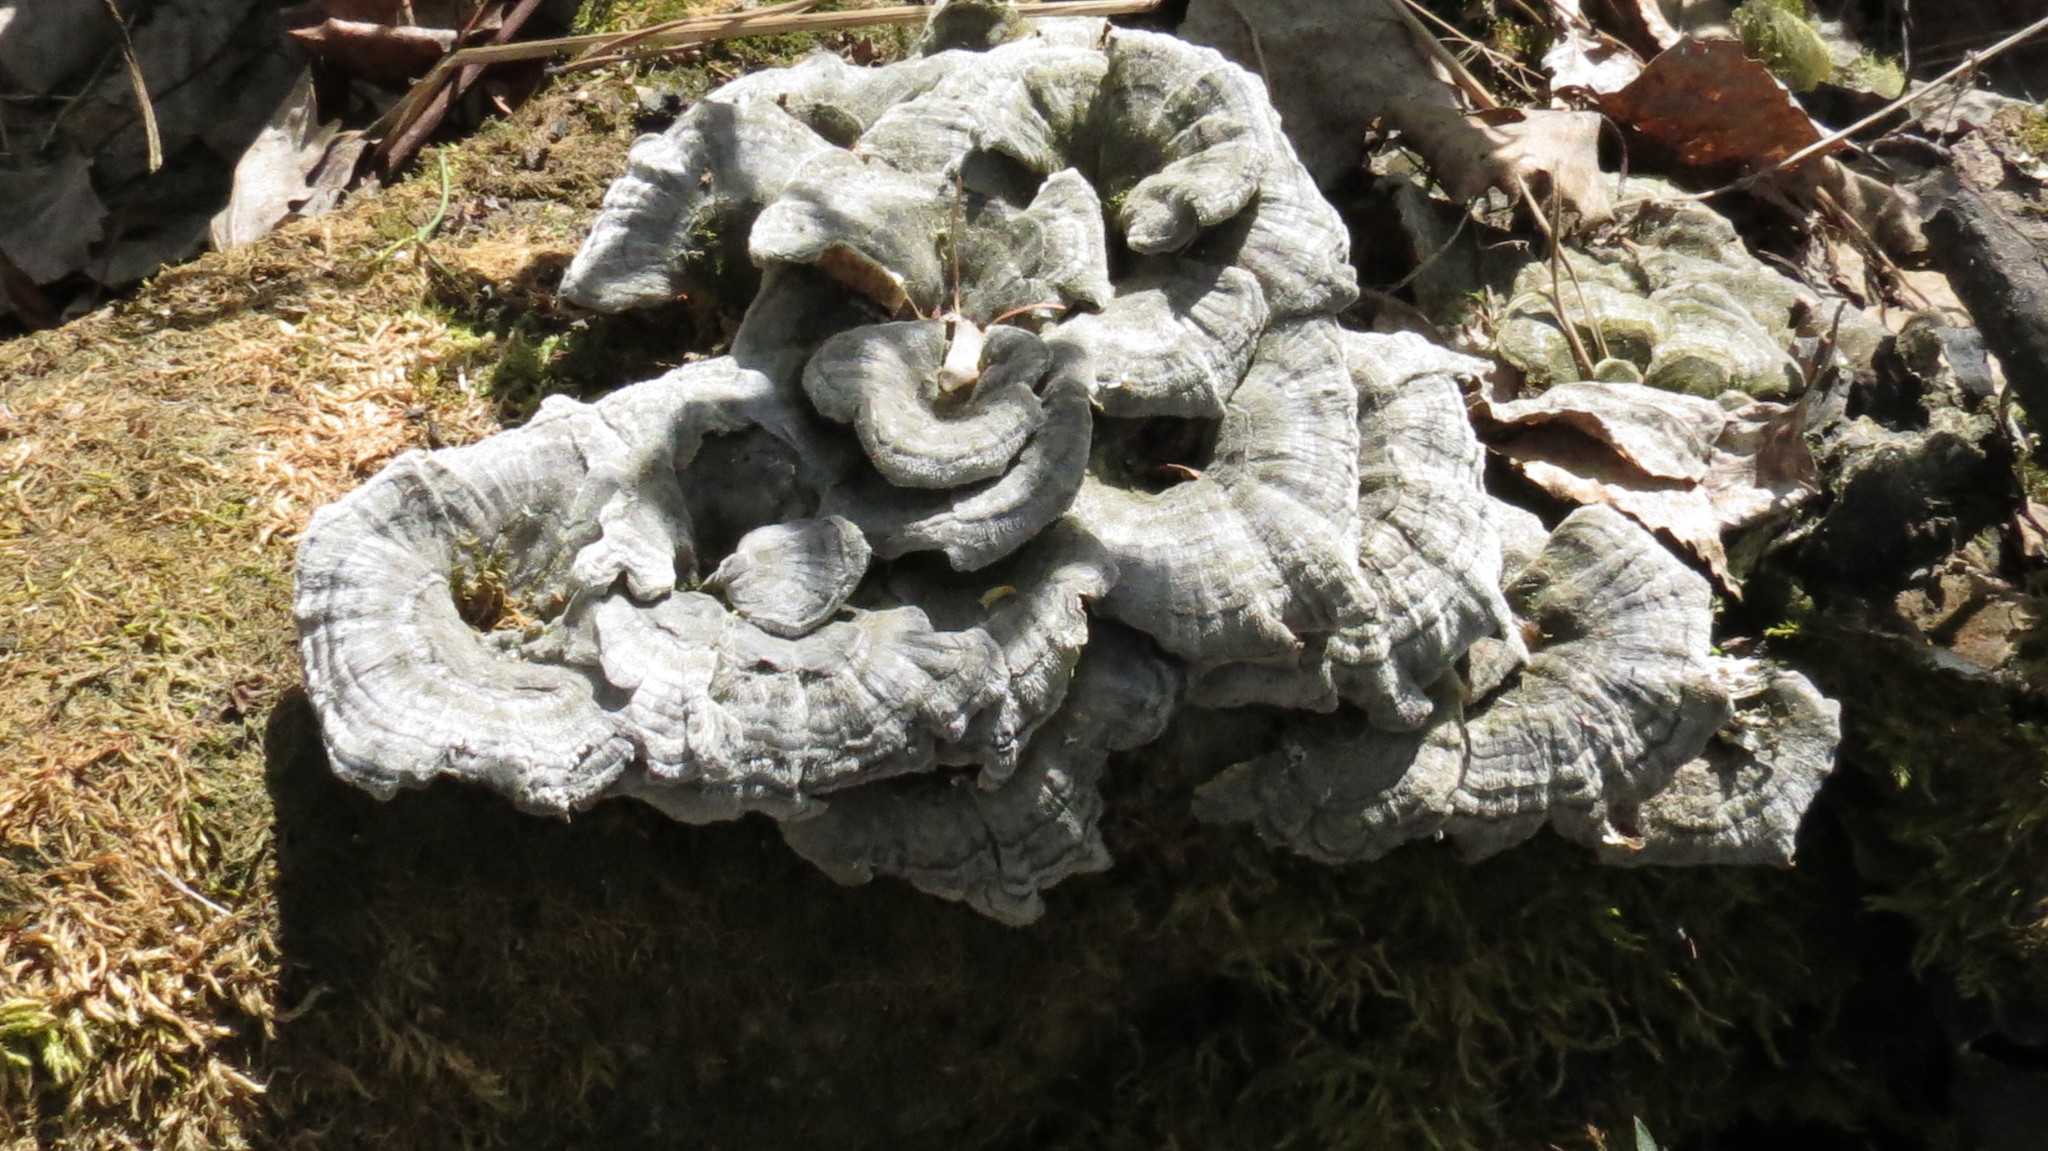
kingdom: Fungi
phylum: Basidiomycota
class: Agaricomycetes
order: Polyporales
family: Polyporaceae
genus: Trametes
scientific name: Trametes versicolor
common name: Turkeytail
